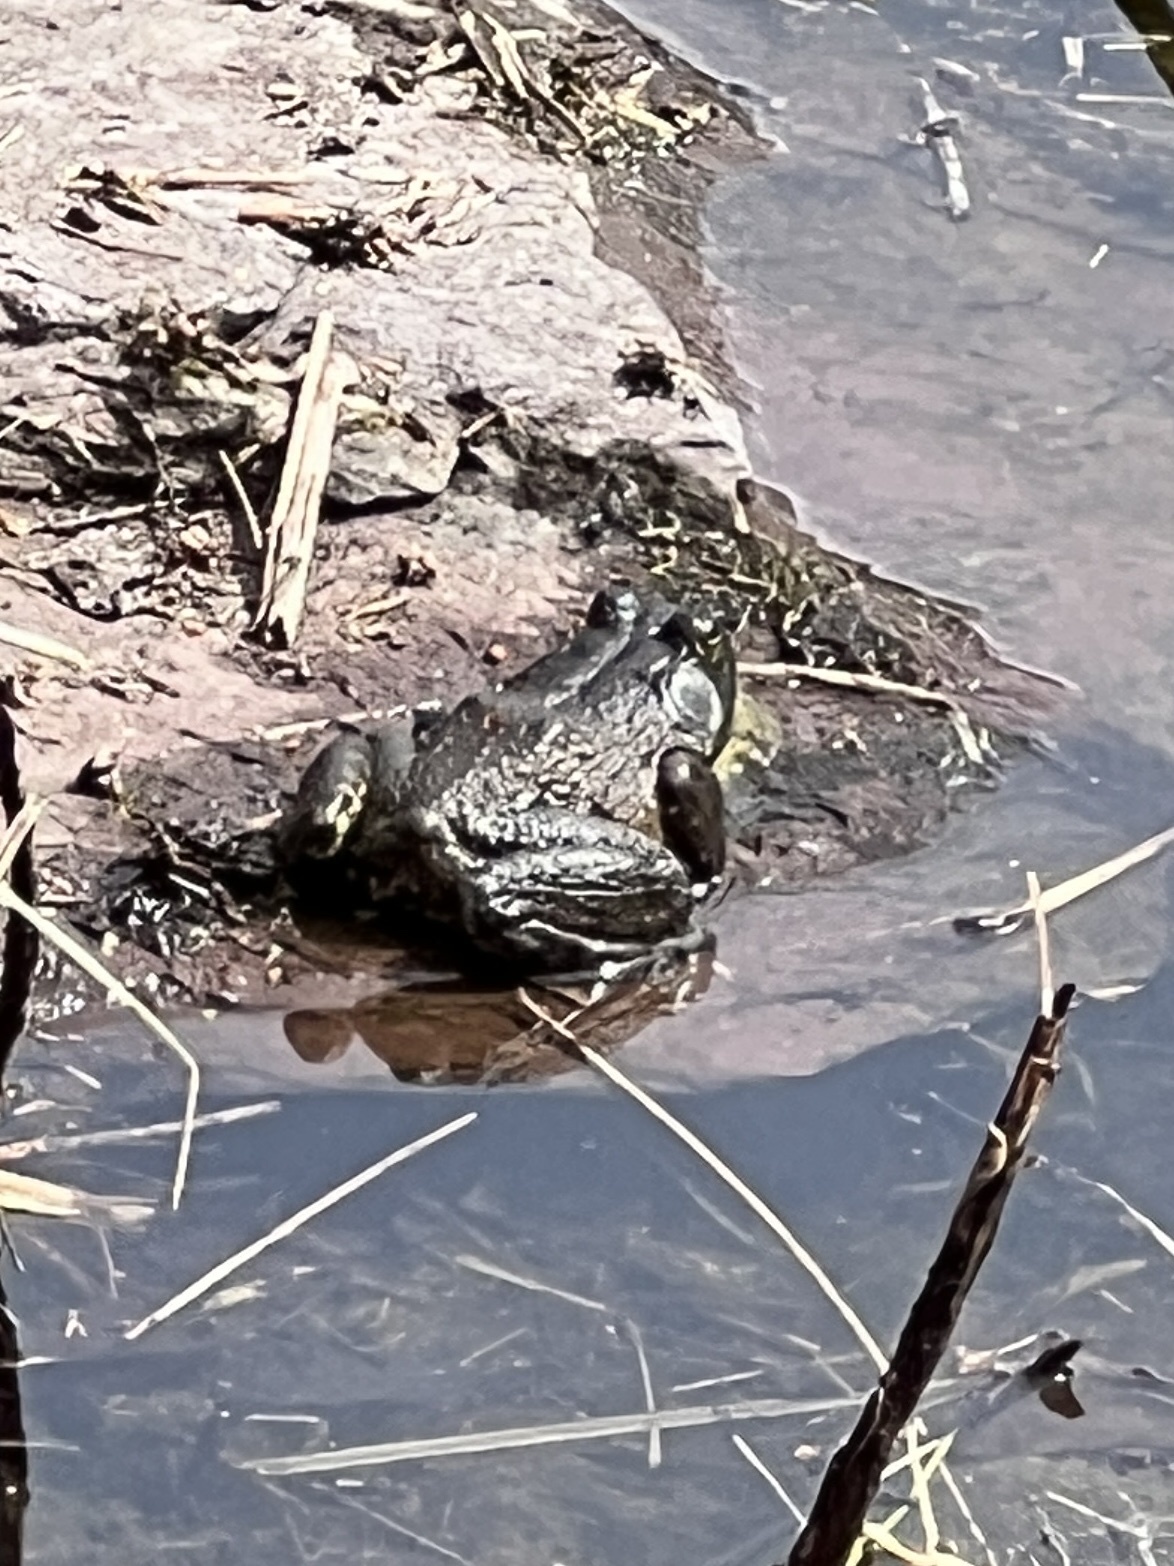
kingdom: Animalia
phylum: Chordata
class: Amphibia
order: Anura
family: Ranidae
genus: Lithobates
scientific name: Lithobates catesbeianus
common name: American bullfrog
